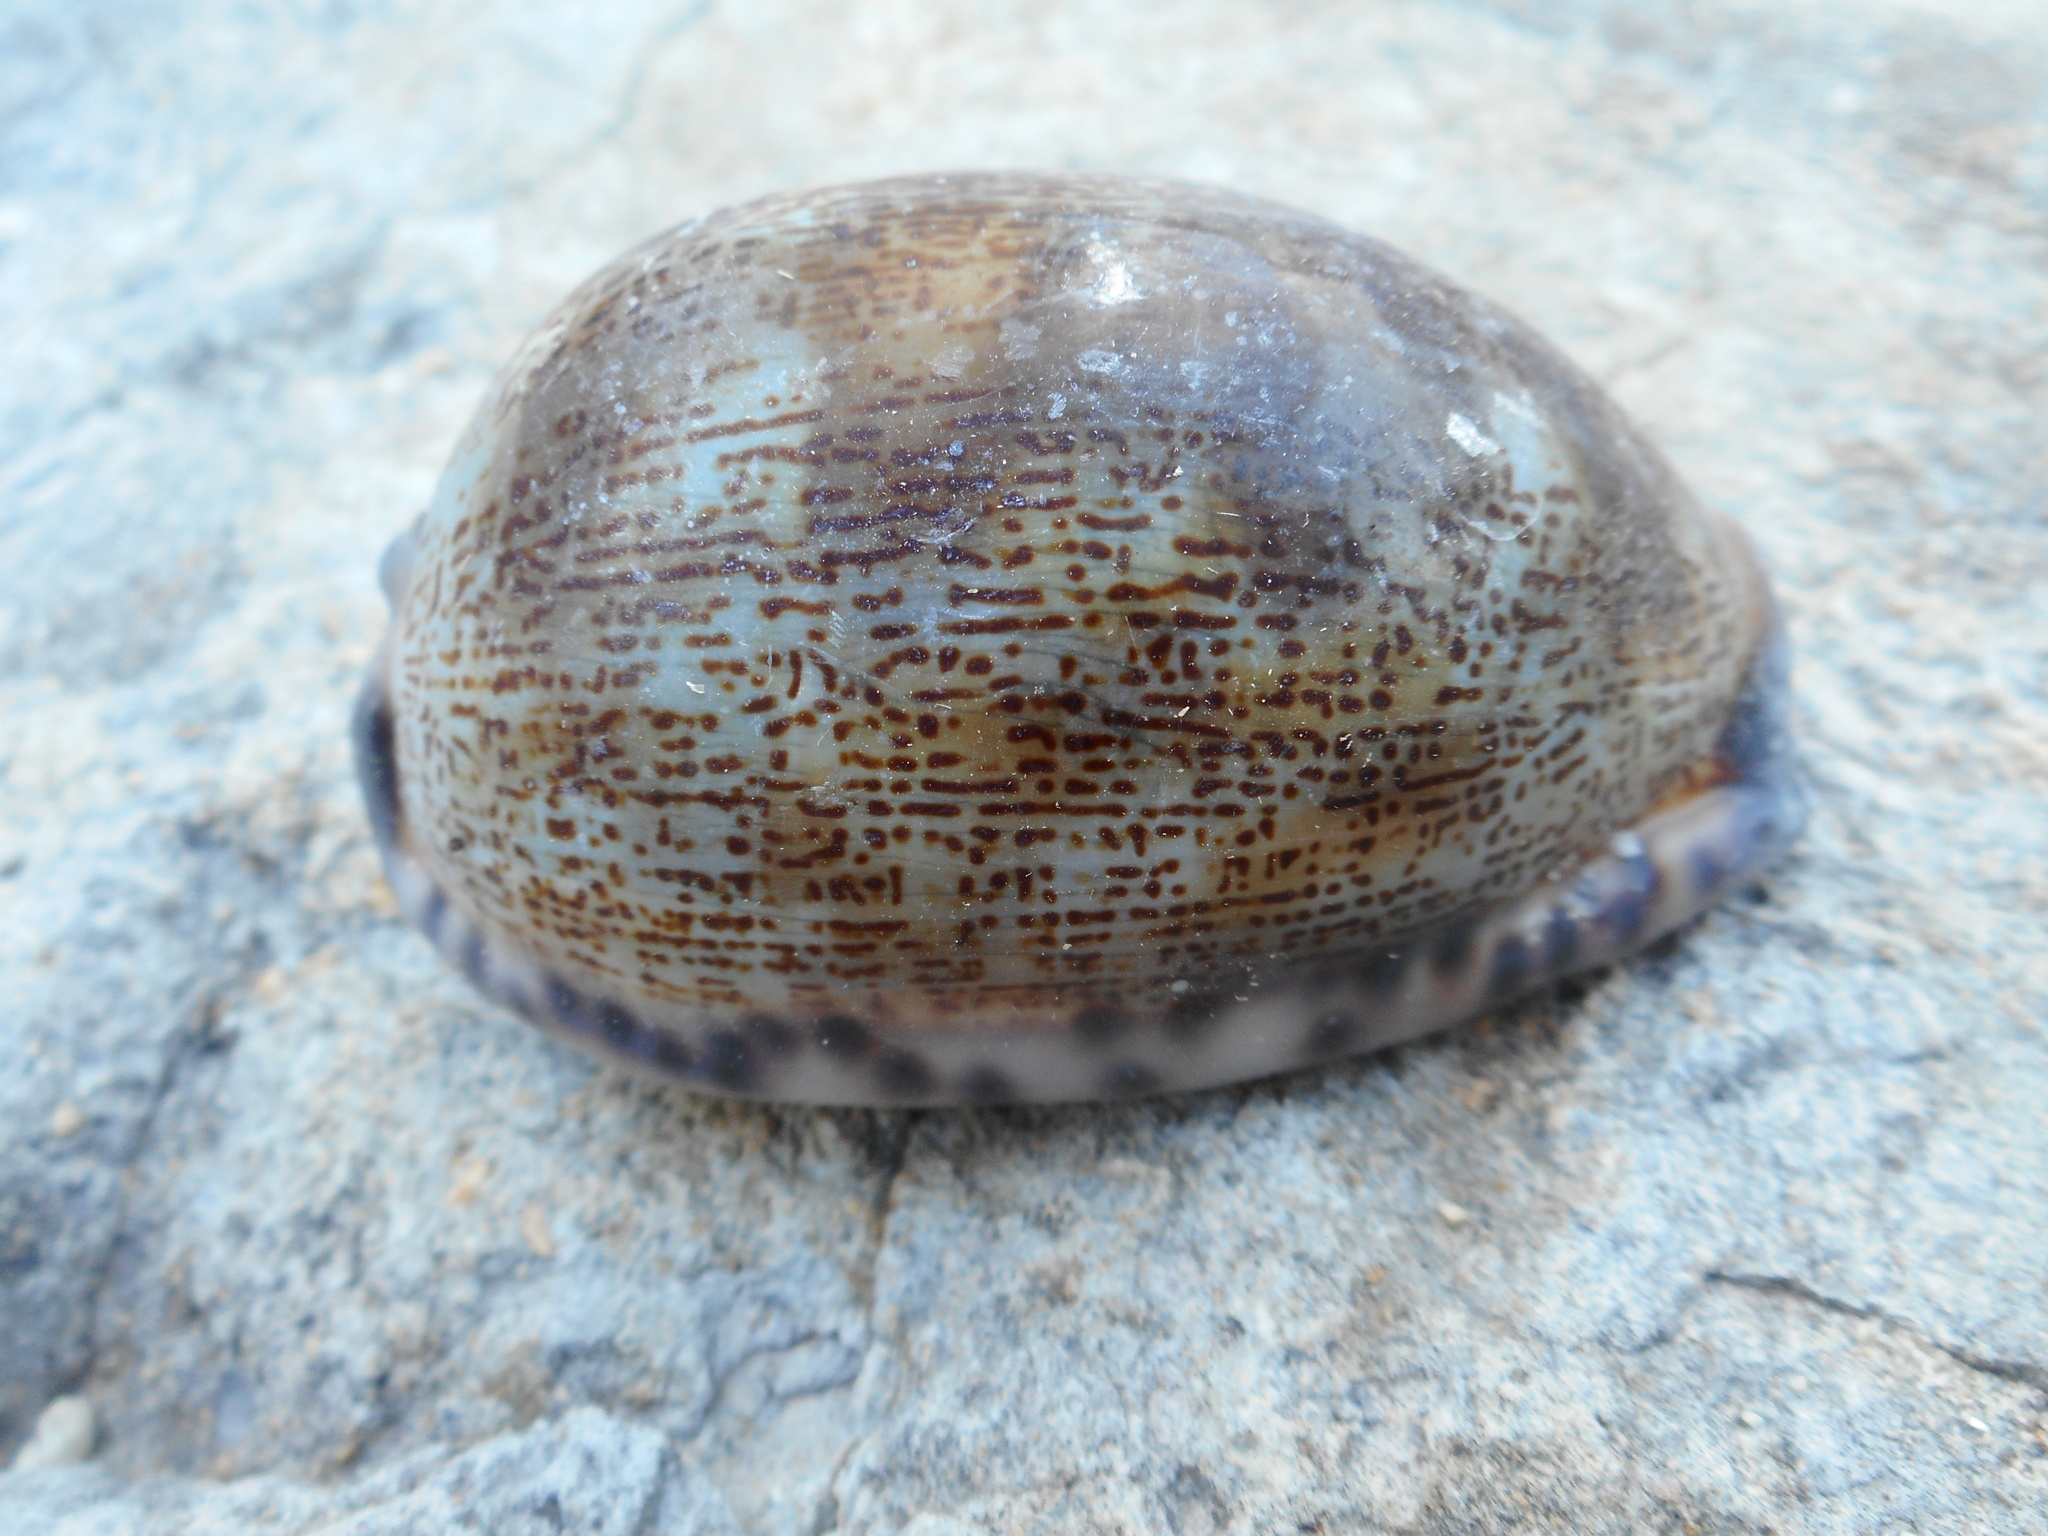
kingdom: Animalia
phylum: Mollusca
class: Gastropoda
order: Littorinimorpha
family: Cypraeidae
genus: Mauritia
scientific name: Mauritia arabica
